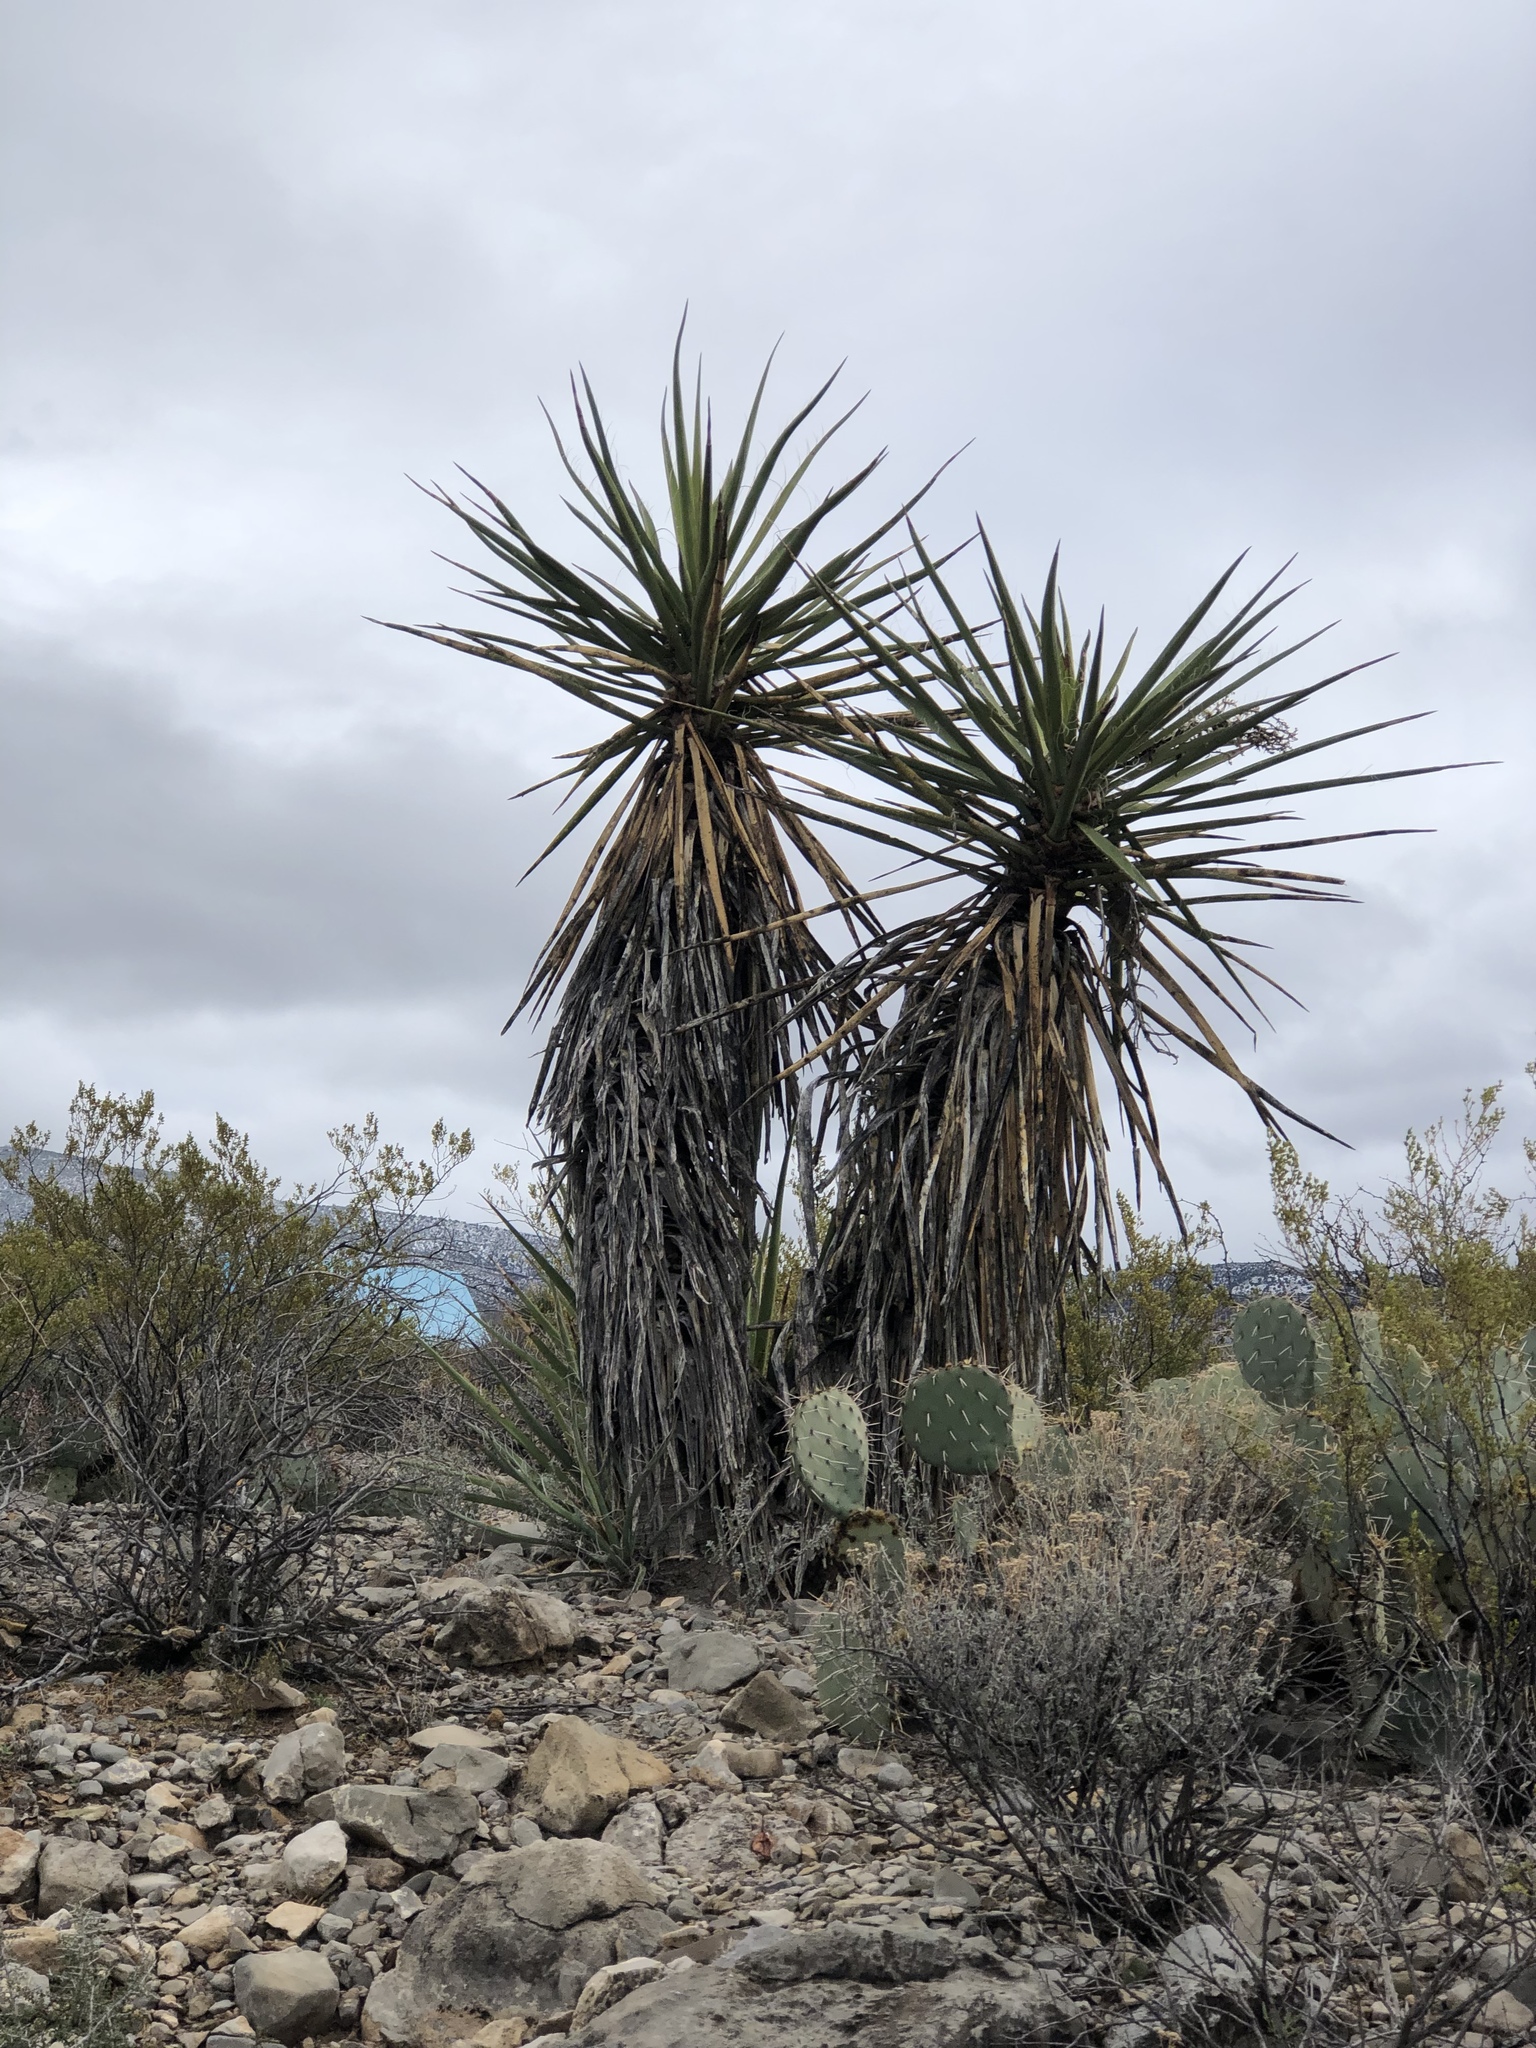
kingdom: Plantae
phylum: Tracheophyta
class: Liliopsida
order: Asparagales
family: Asparagaceae
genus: Yucca
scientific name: Yucca treculiana
